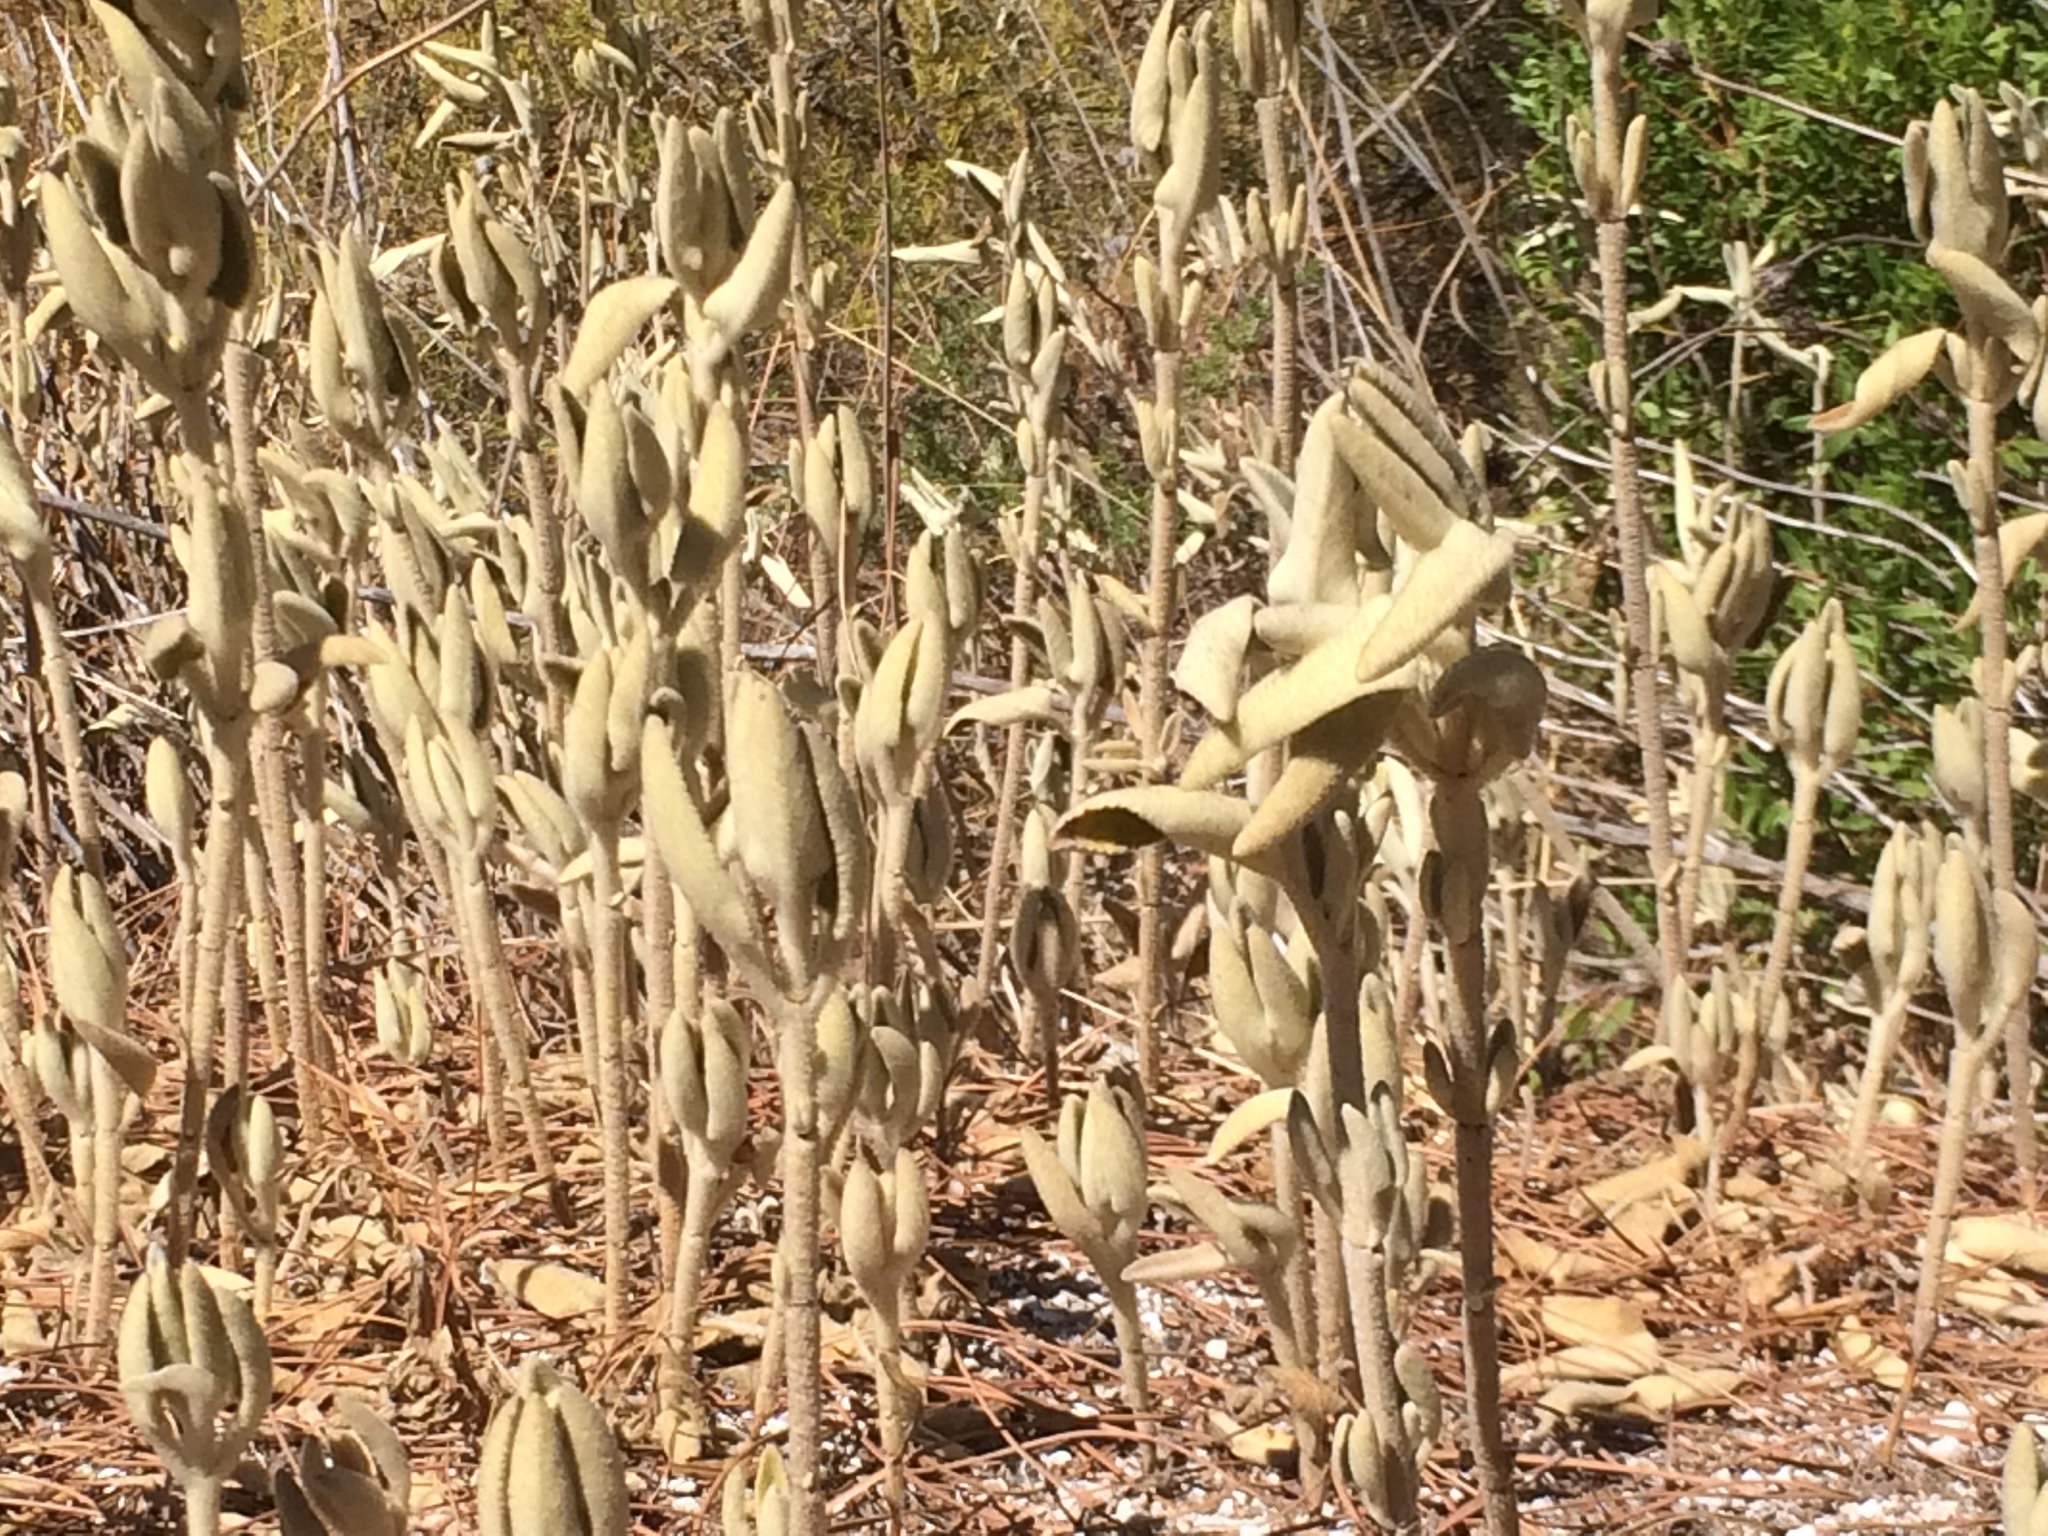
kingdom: Plantae
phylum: Tracheophyta
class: Magnoliopsida
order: Lamiales
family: Lamiaceae
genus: Phlomis
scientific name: Phlomis purpurea
